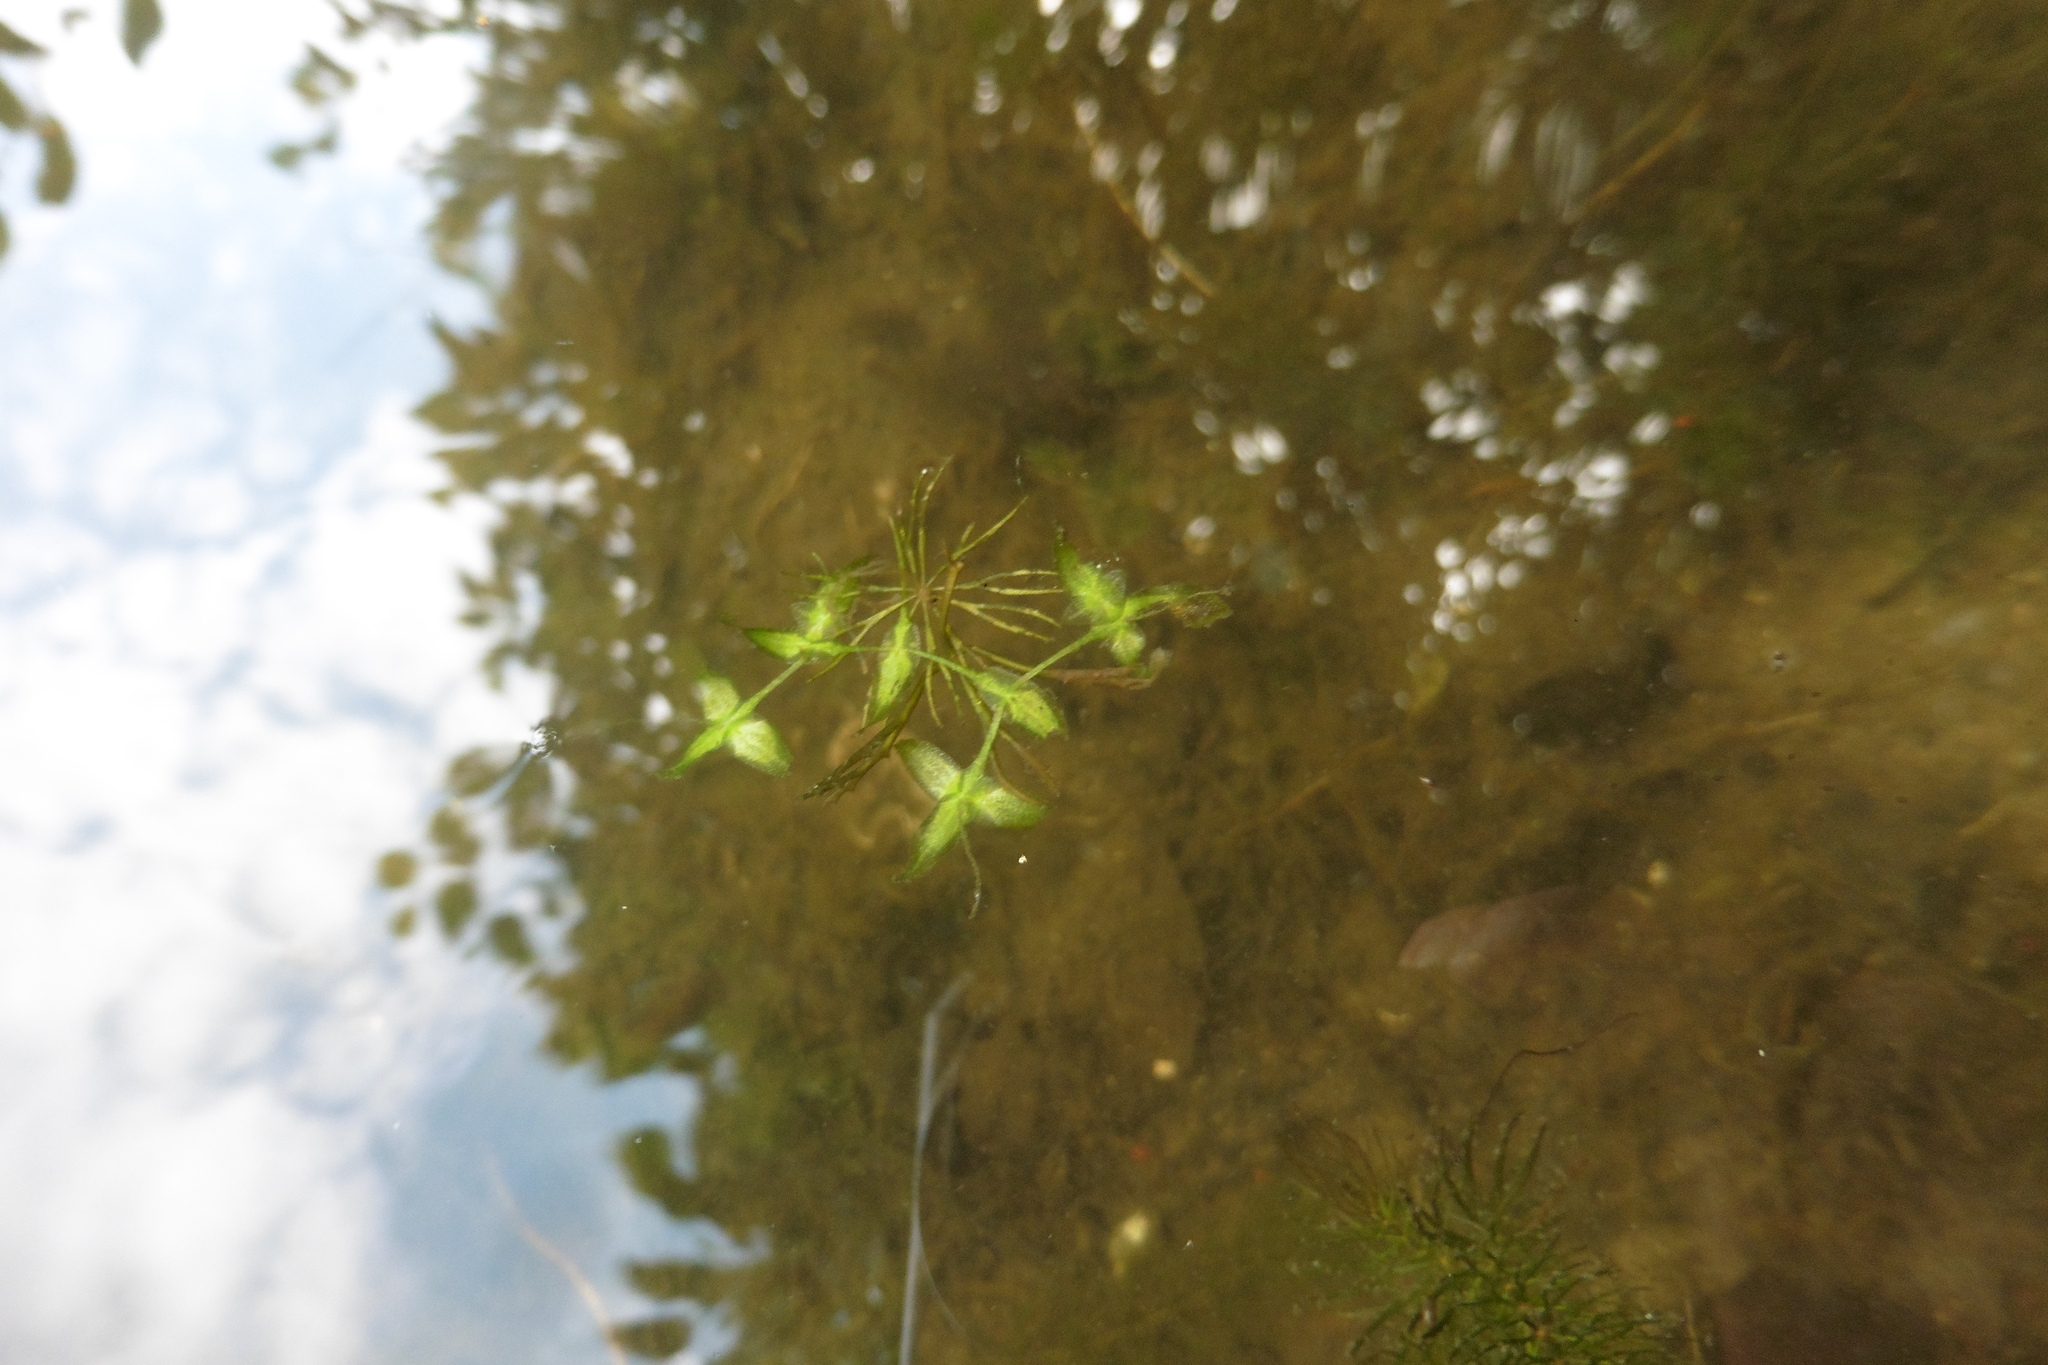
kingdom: Plantae
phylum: Tracheophyta
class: Liliopsida
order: Alismatales
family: Araceae
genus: Lemna
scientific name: Lemna trisulca
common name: Ivy-leaved duckweed
